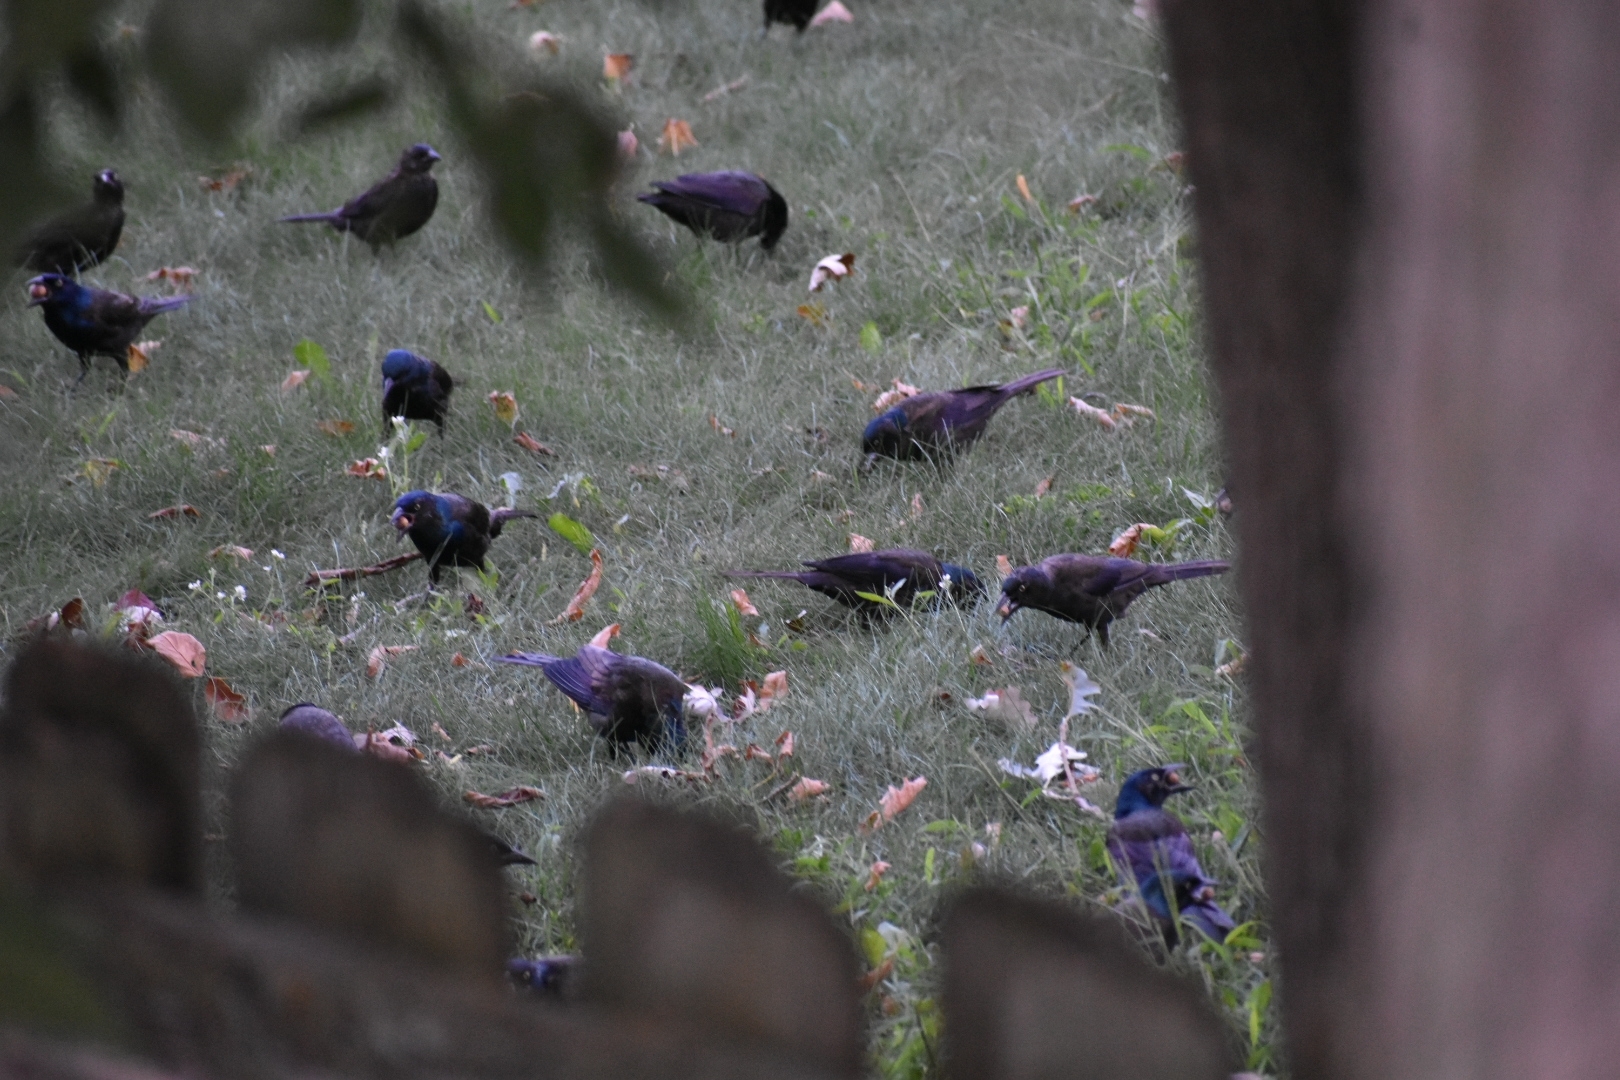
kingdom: Animalia
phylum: Chordata
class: Aves
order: Passeriformes
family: Icteridae
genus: Quiscalus
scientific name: Quiscalus quiscula
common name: Common grackle
